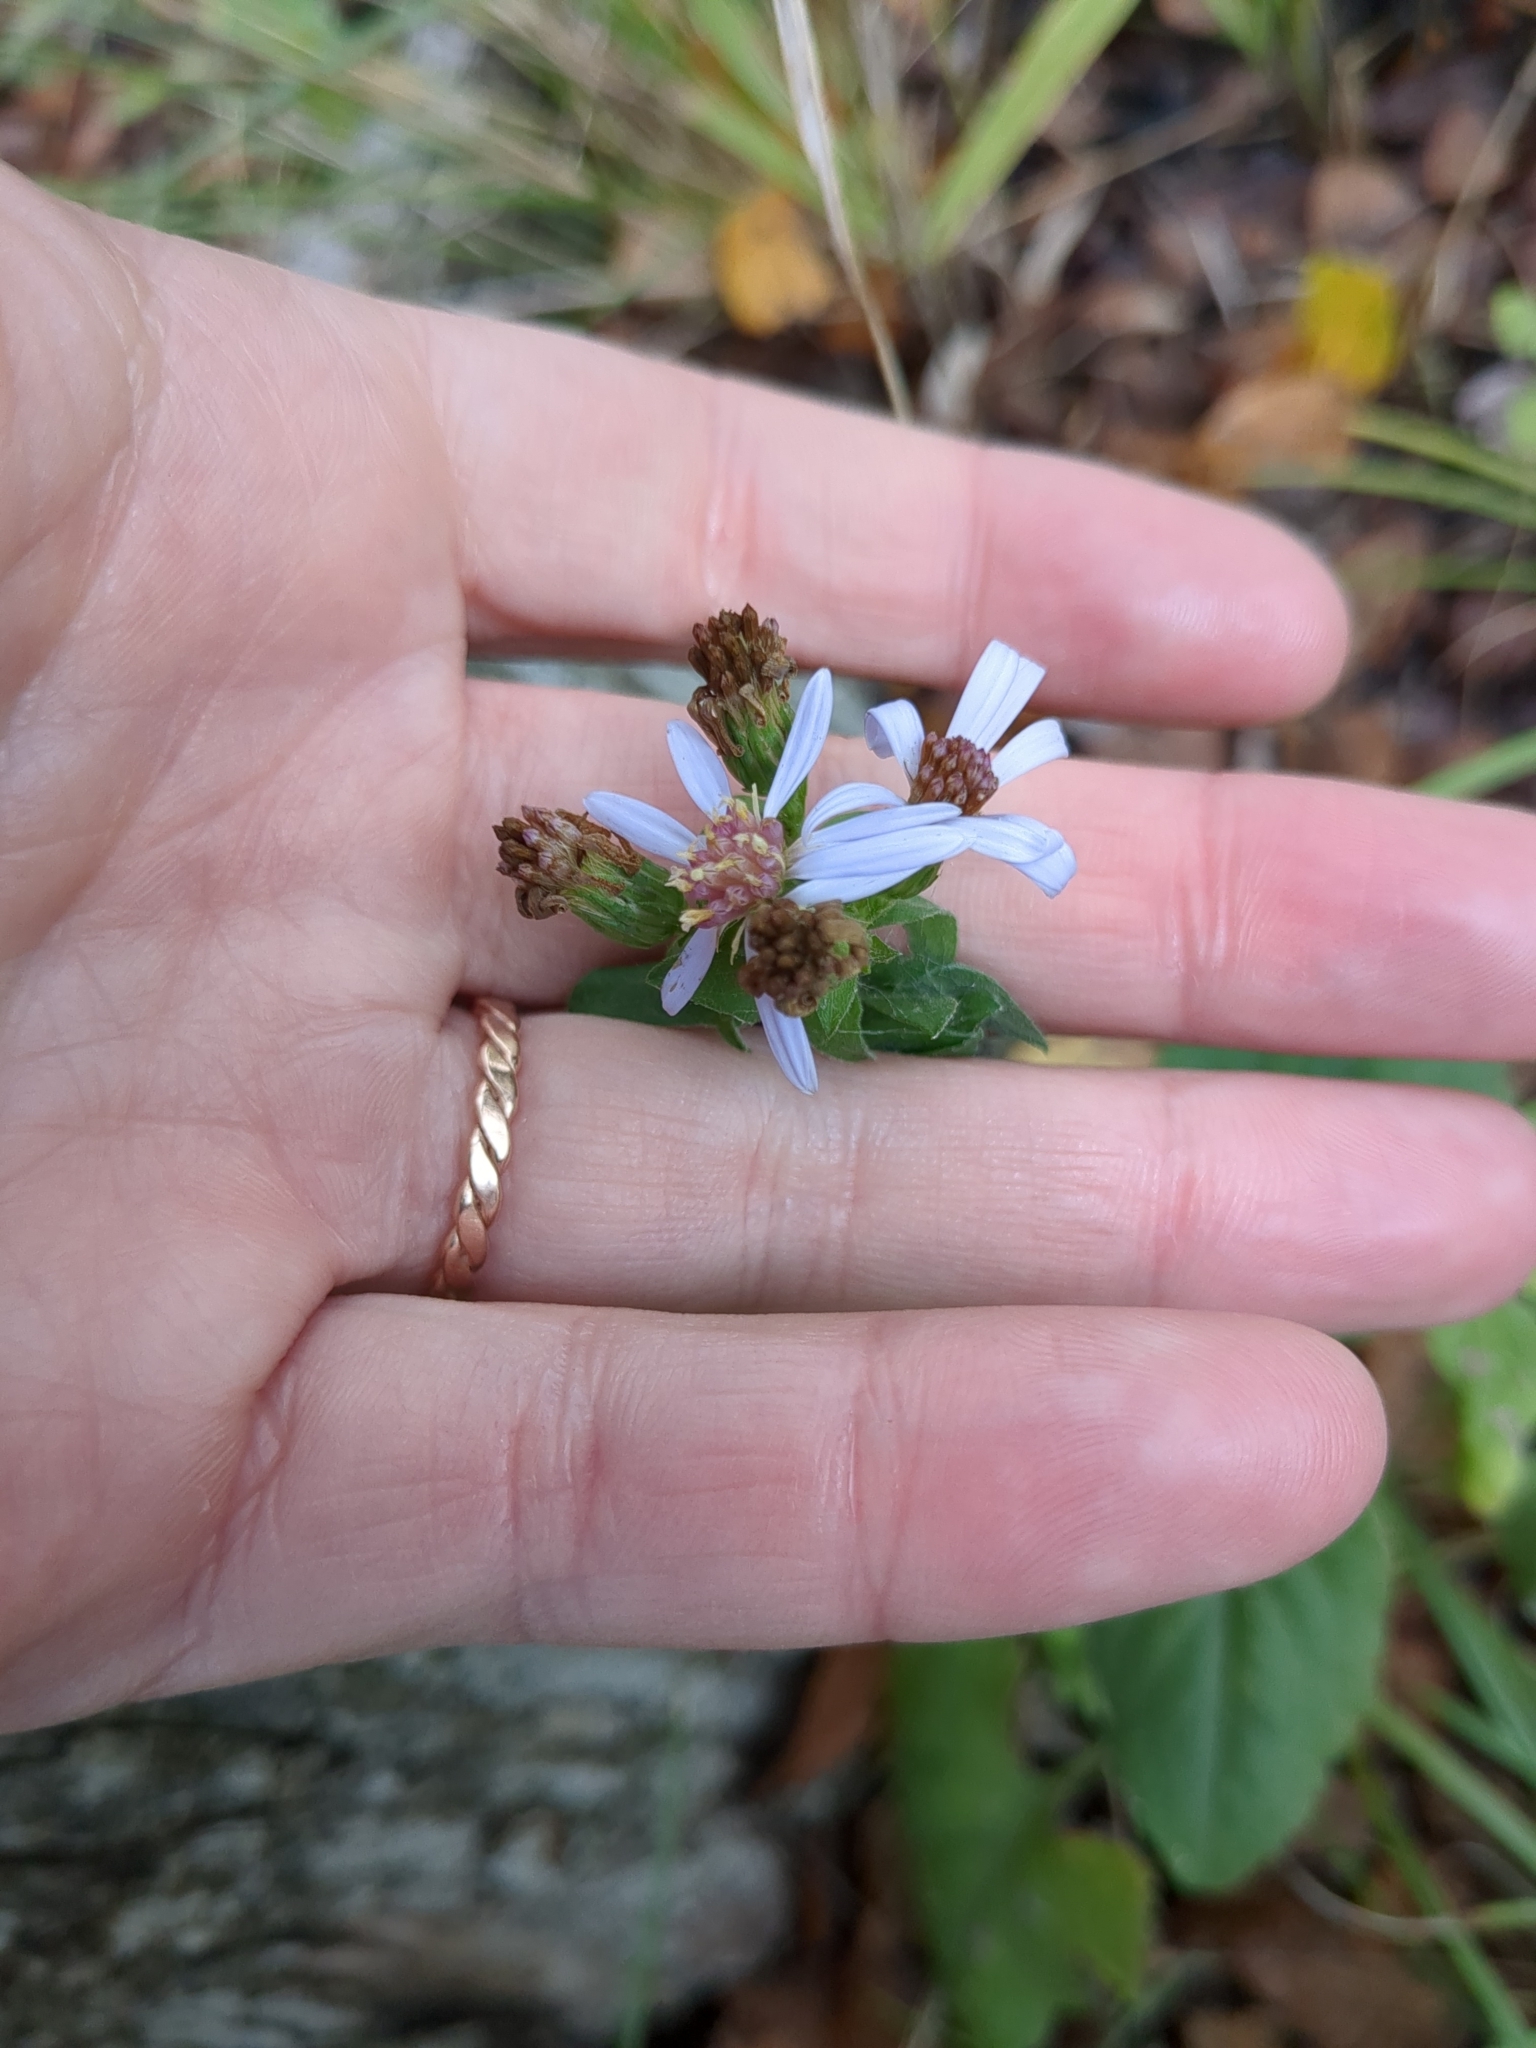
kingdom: Plantae
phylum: Tracheophyta
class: Magnoliopsida
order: Asterales
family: Asteraceae
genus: Symphyotrichum
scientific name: Symphyotrichum drummondii
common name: Drummond's aster
